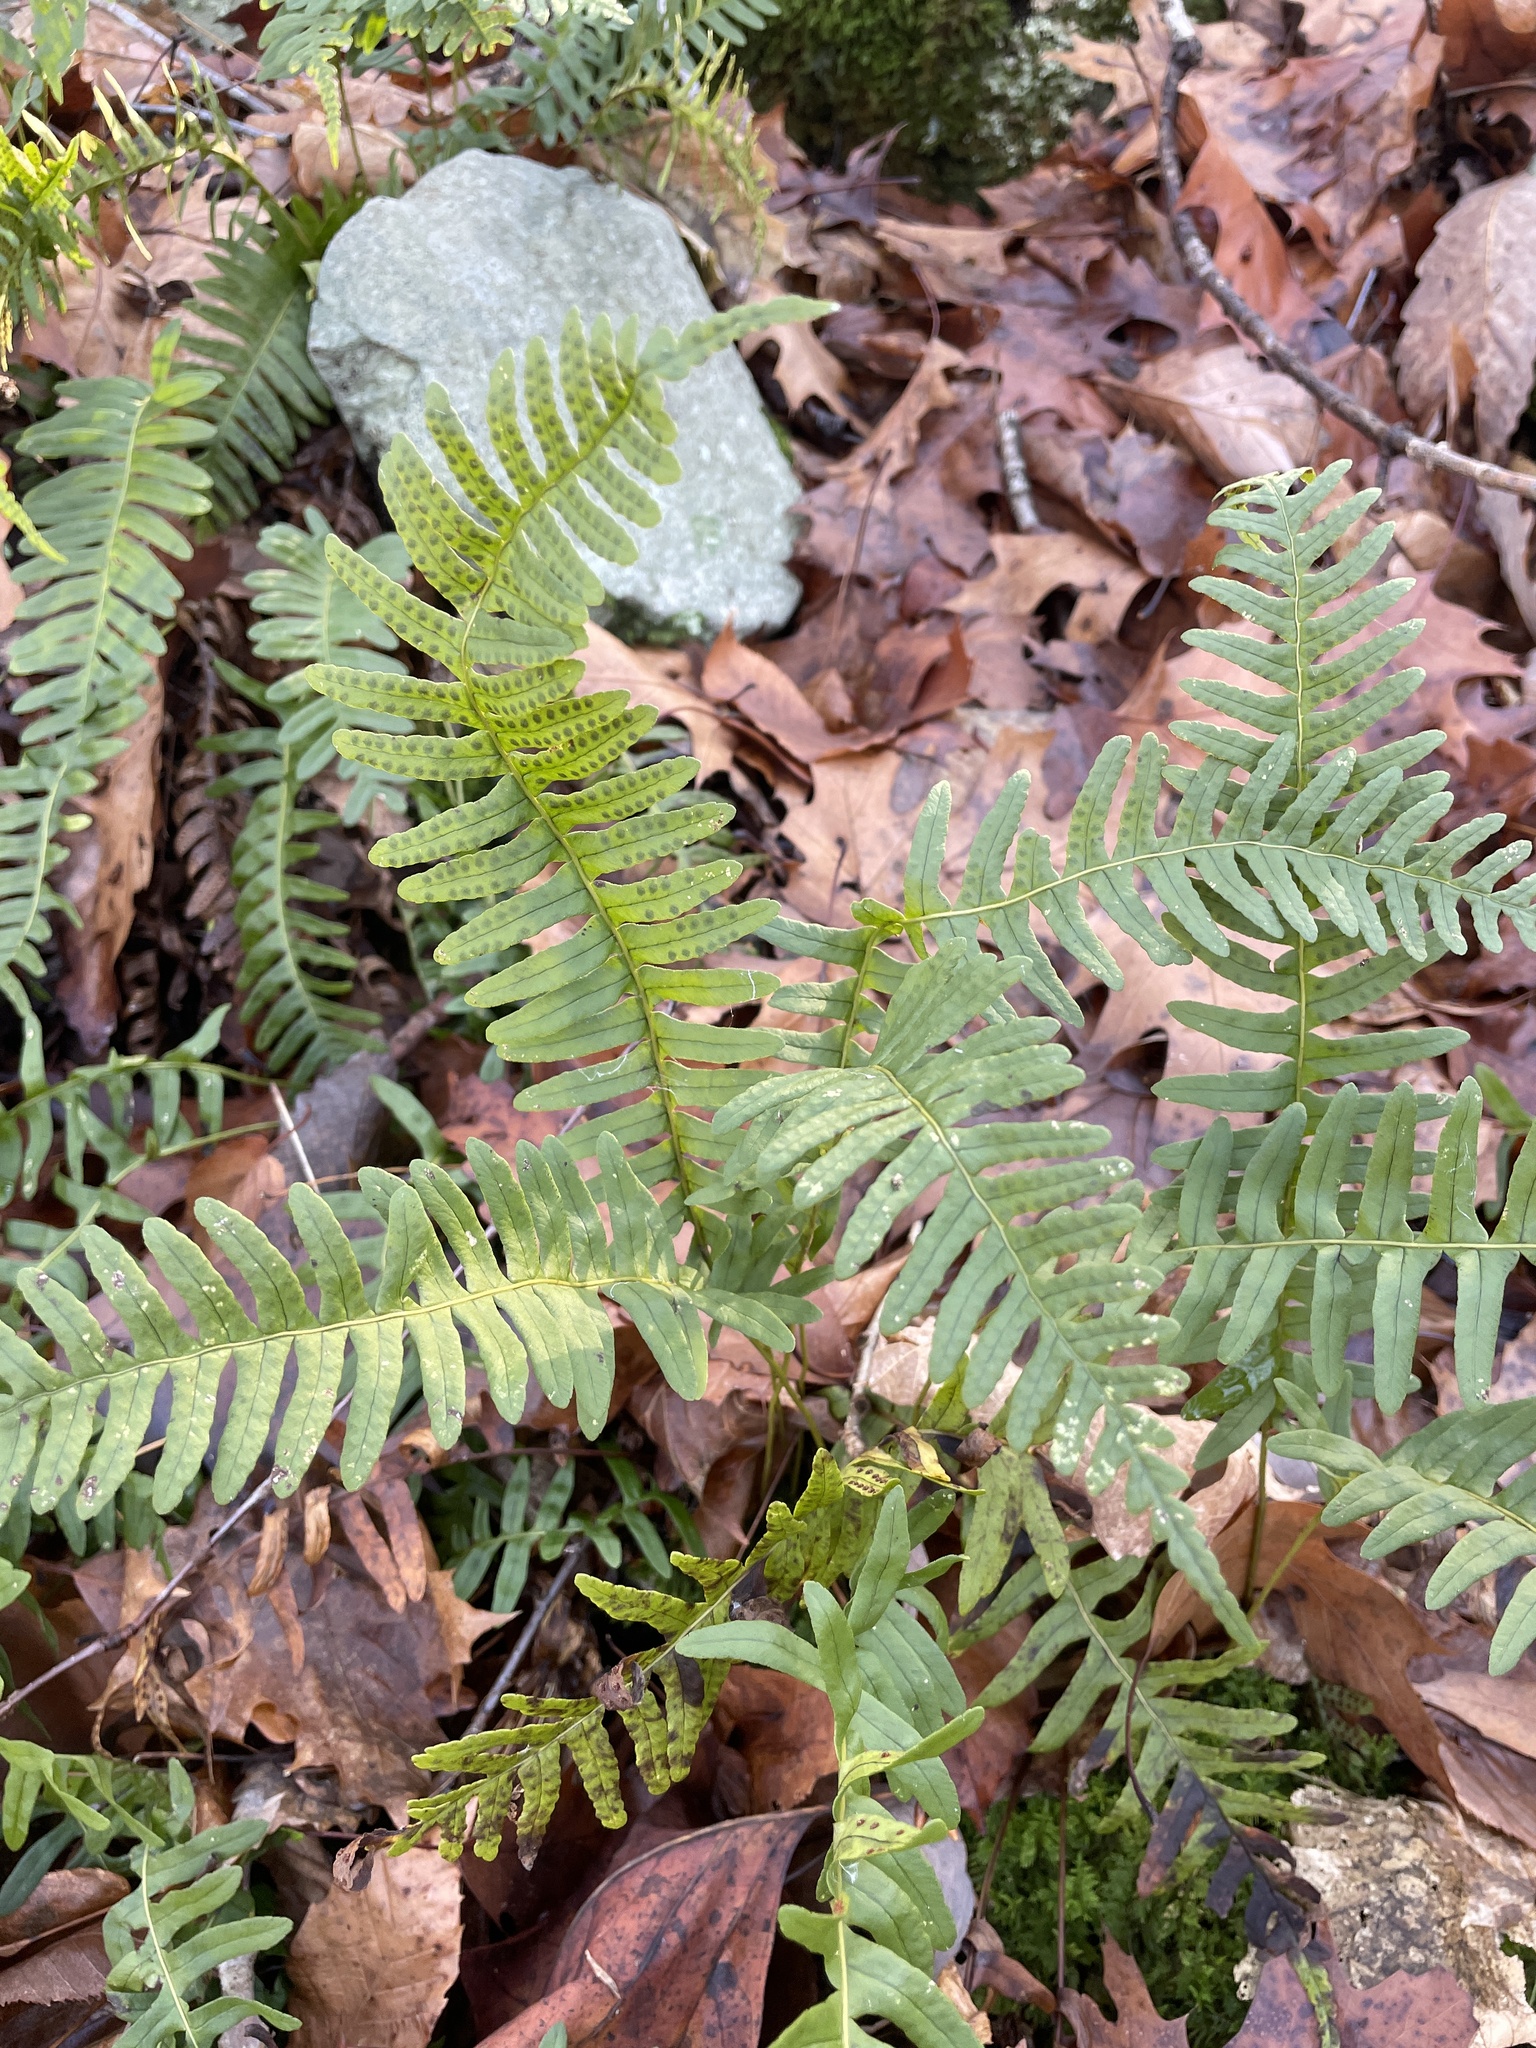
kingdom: Plantae
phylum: Tracheophyta
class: Polypodiopsida
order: Polypodiales
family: Polypodiaceae
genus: Polypodium
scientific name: Polypodium virginianum
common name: American wall fern
